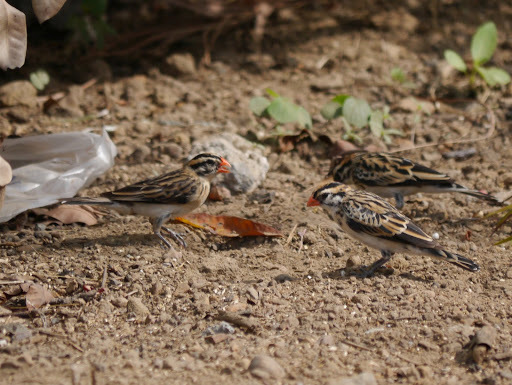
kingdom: Animalia
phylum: Chordata
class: Aves
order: Passeriformes
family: Viduidae
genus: Vidua
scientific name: Vidua macroura
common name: Pin-tailed whydah
